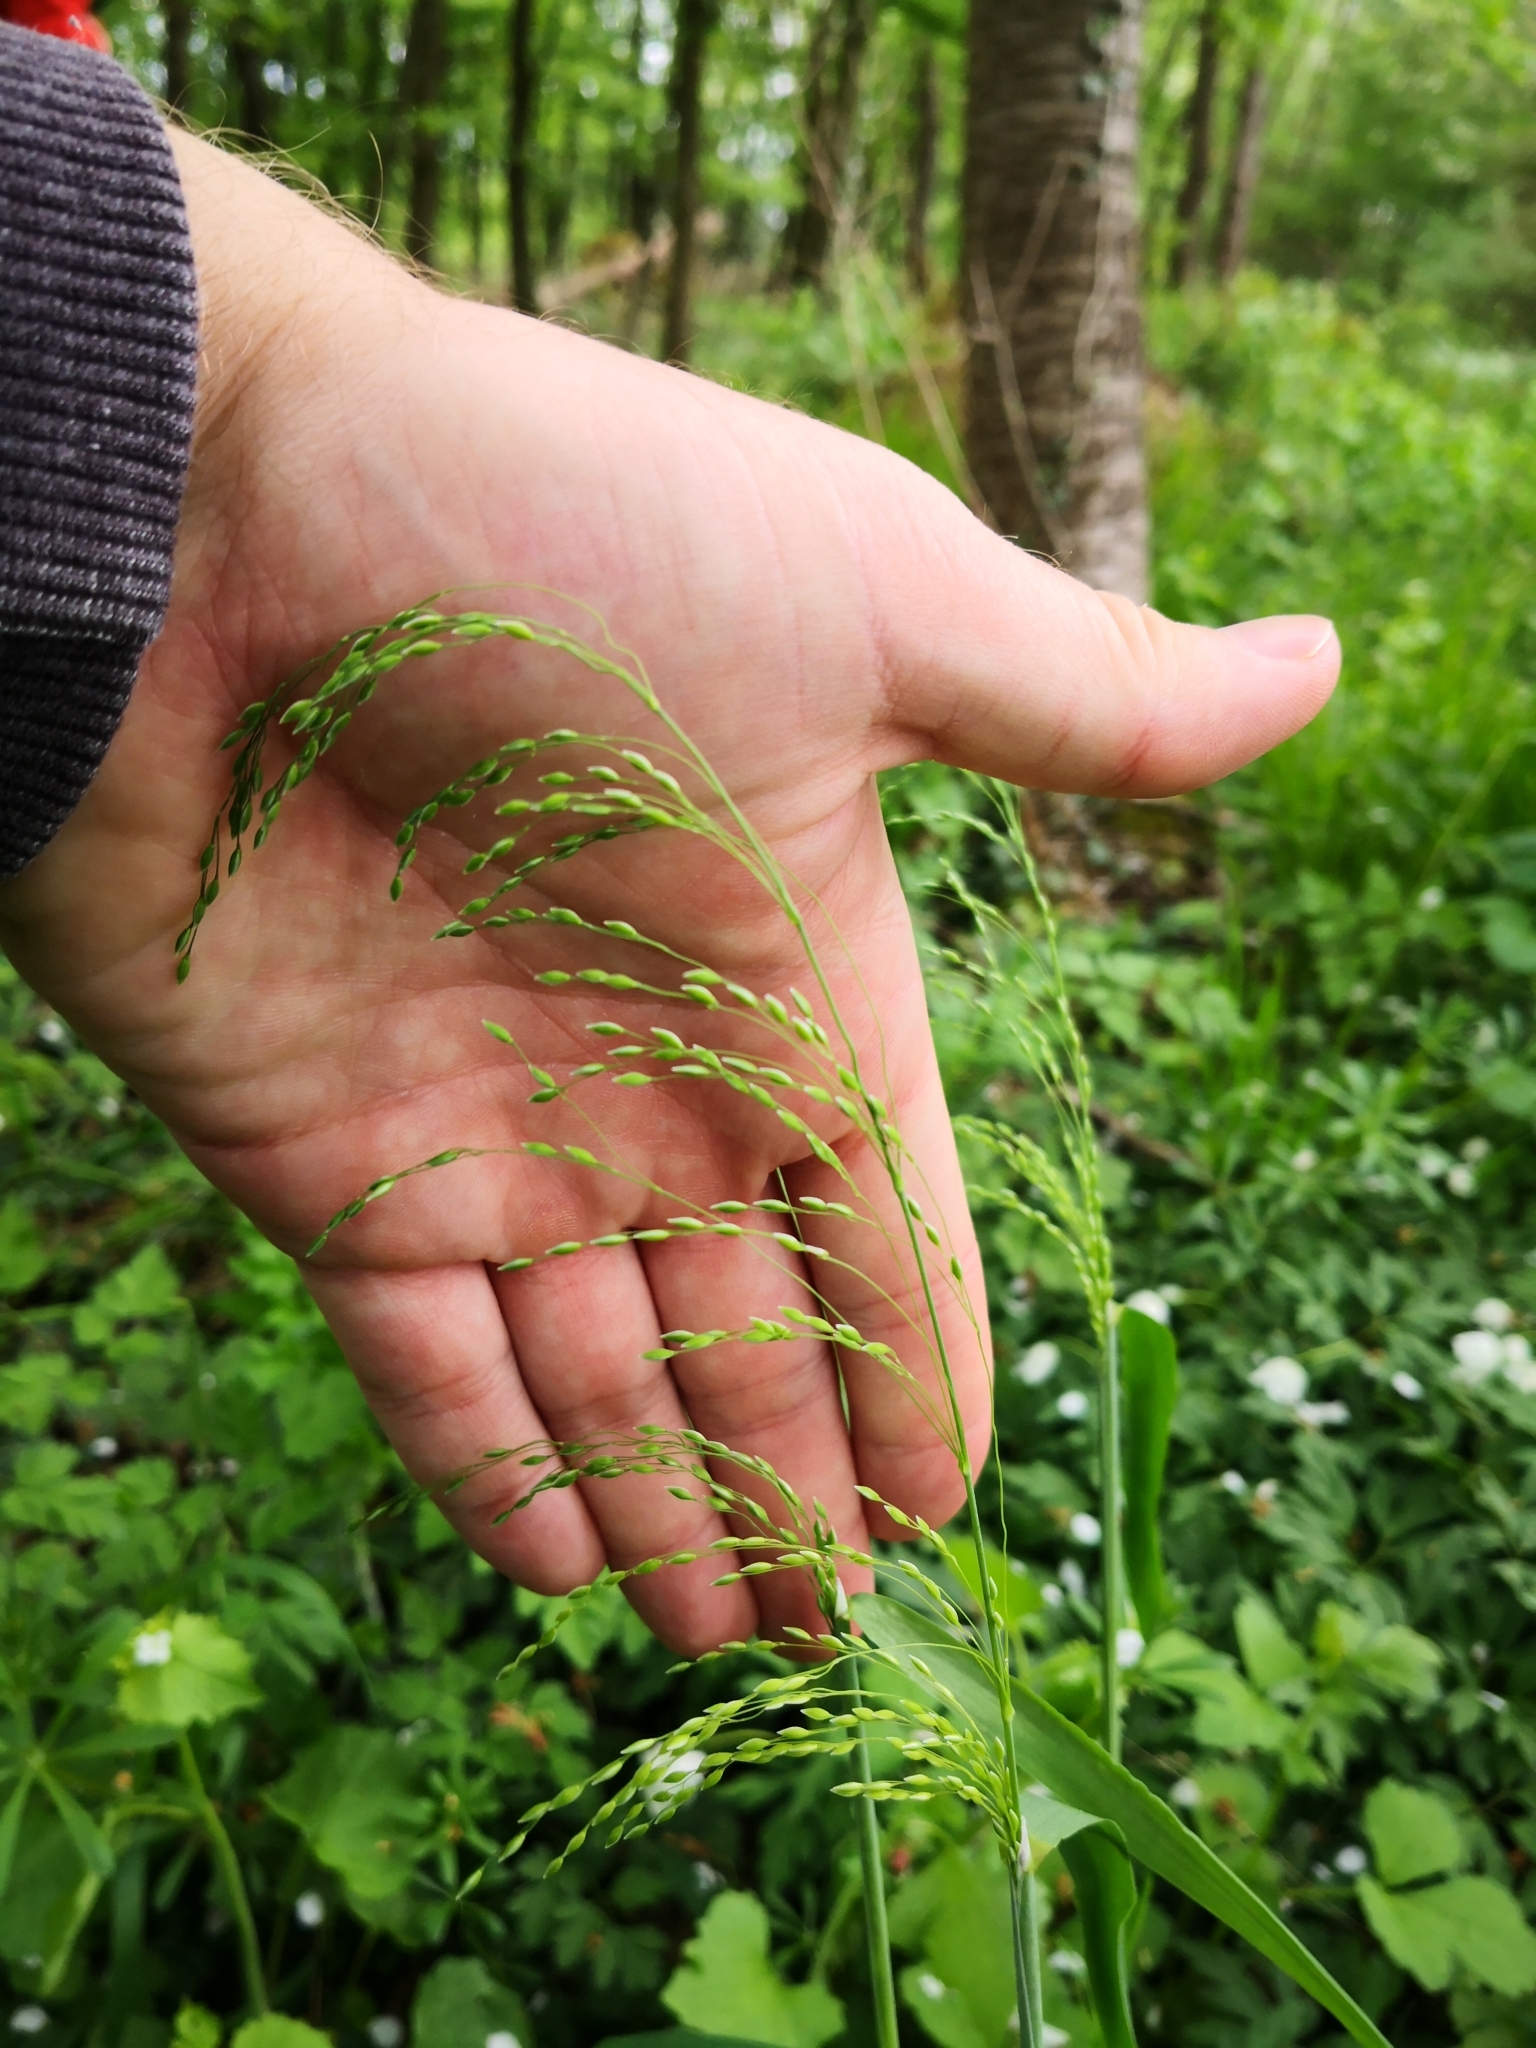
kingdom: Plantae
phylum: Tracheophyta
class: Liliopsida
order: Poales
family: Poaceae
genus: Milium
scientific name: Milium effusum
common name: Wood millet
